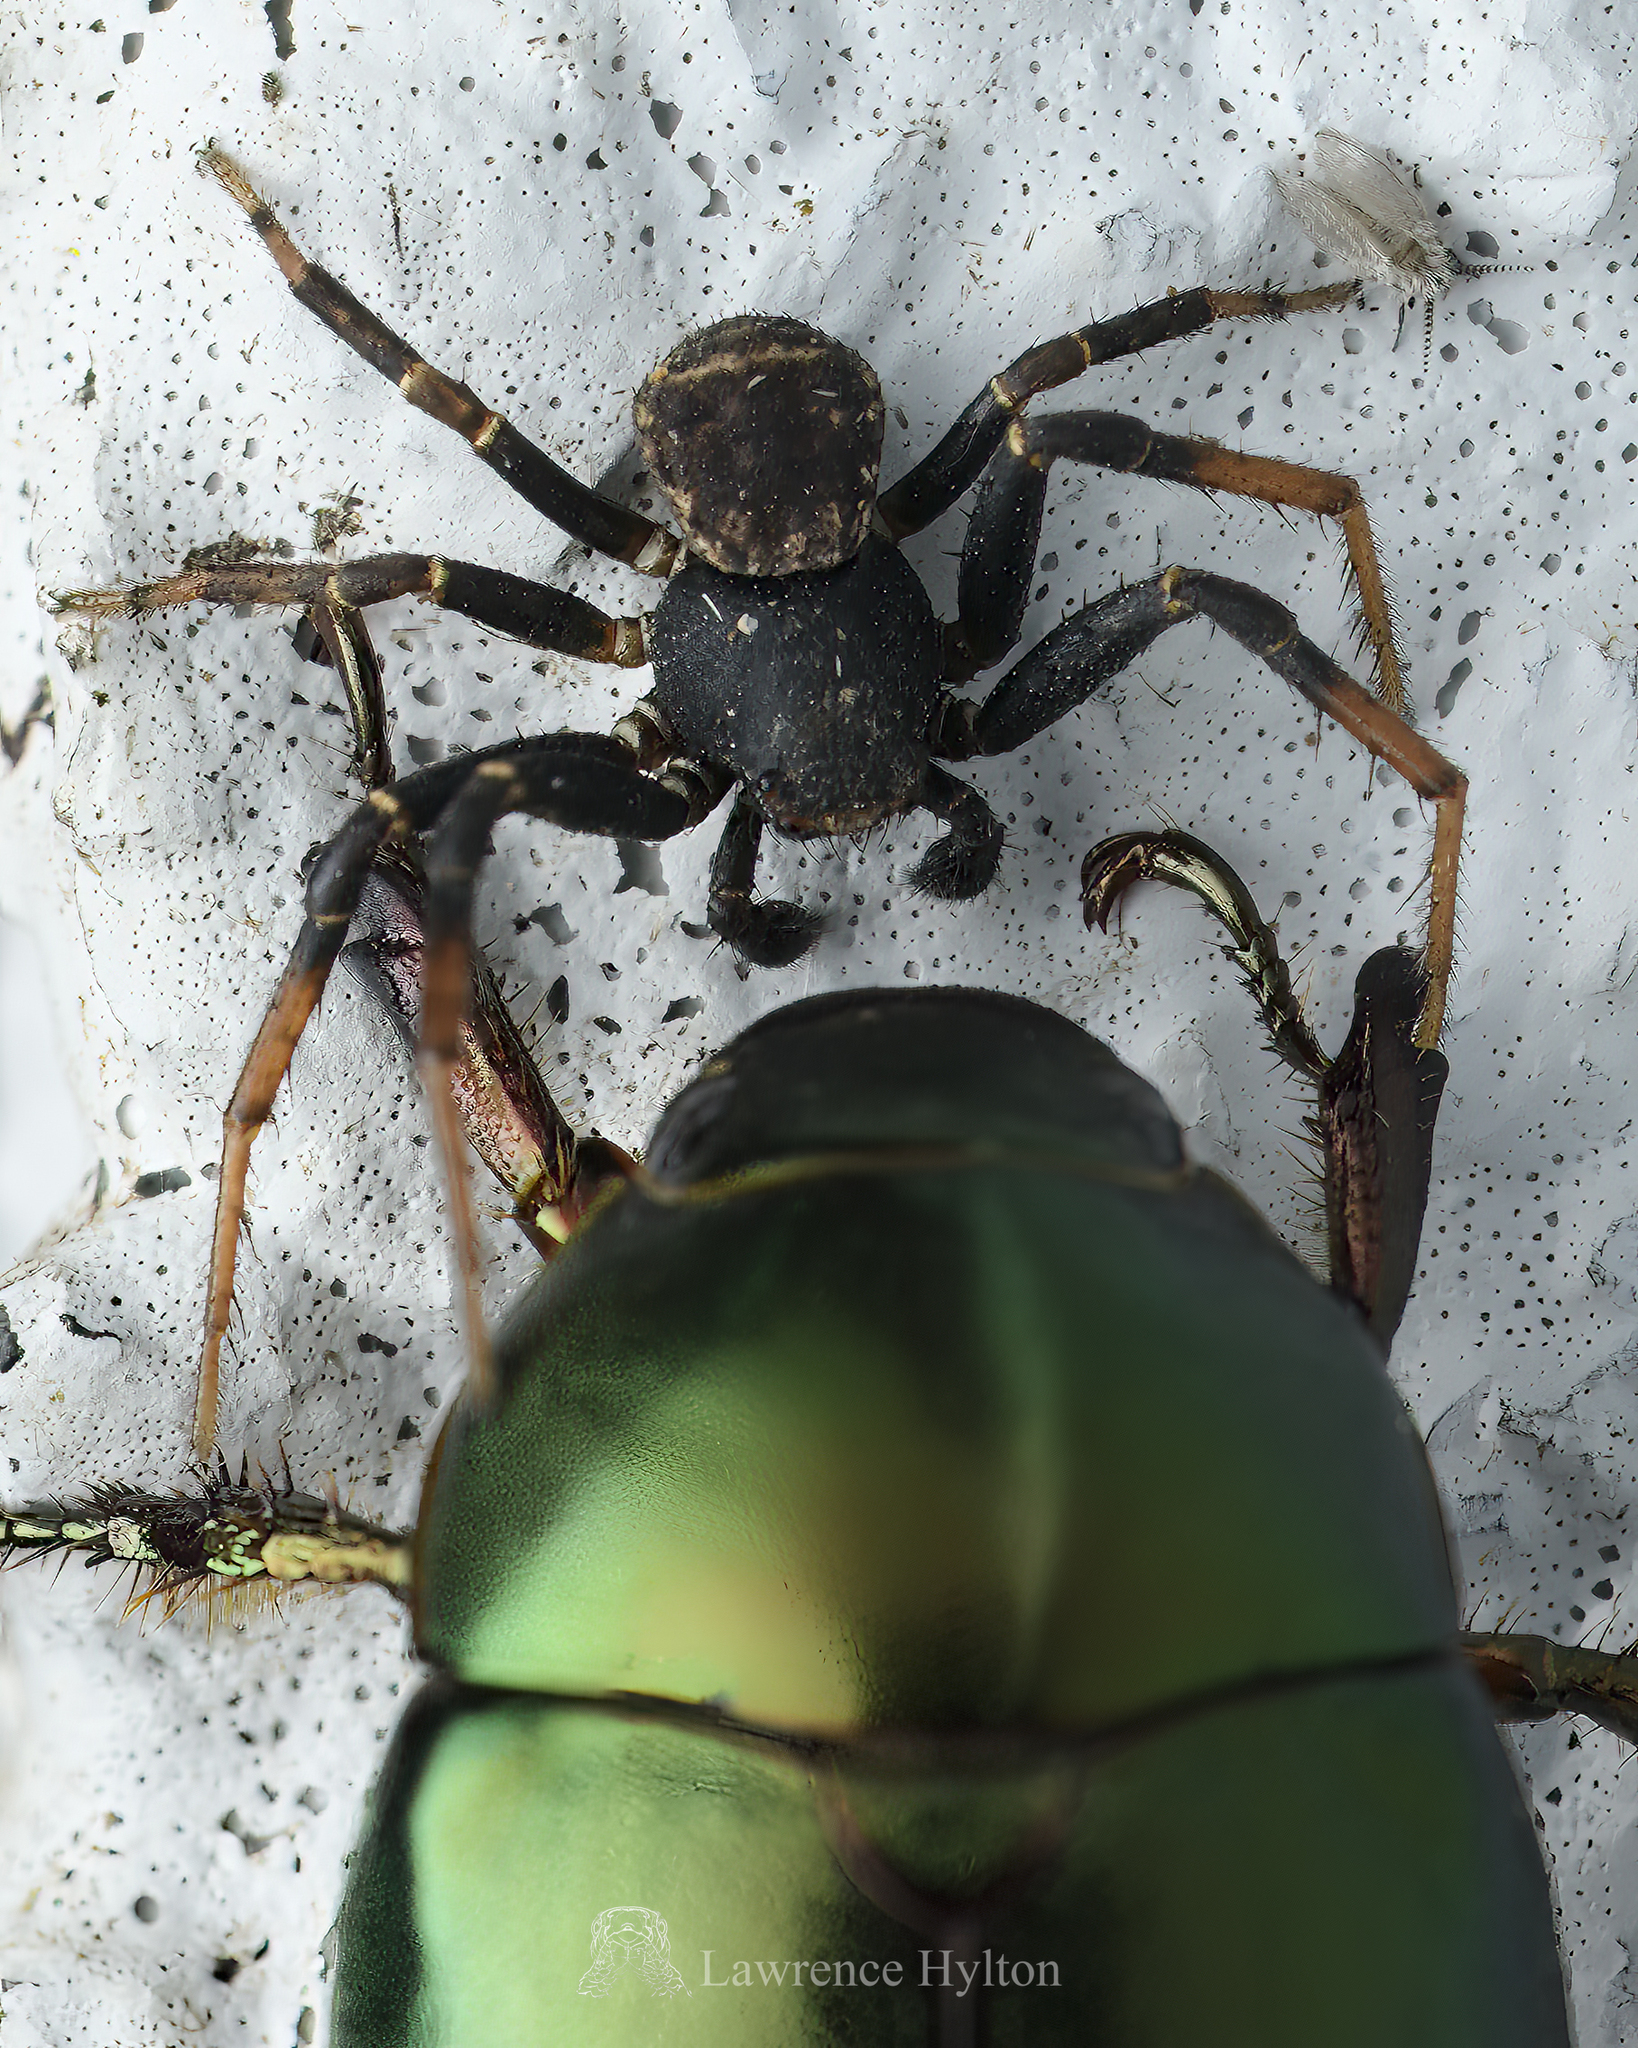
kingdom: Animalia
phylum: Arthropoda
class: Arachnida
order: Araneae
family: Thomisidae
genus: Xysticus
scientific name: Xysticus croceus
